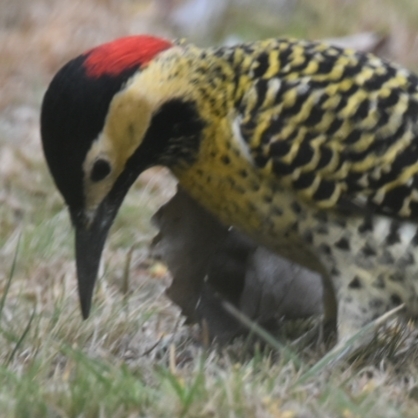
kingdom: Animalia
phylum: Chordata
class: Aves
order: Piciformes
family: Picidae
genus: Colaptes
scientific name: Colaptes melanochloros
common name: Green-barred woodpecker
